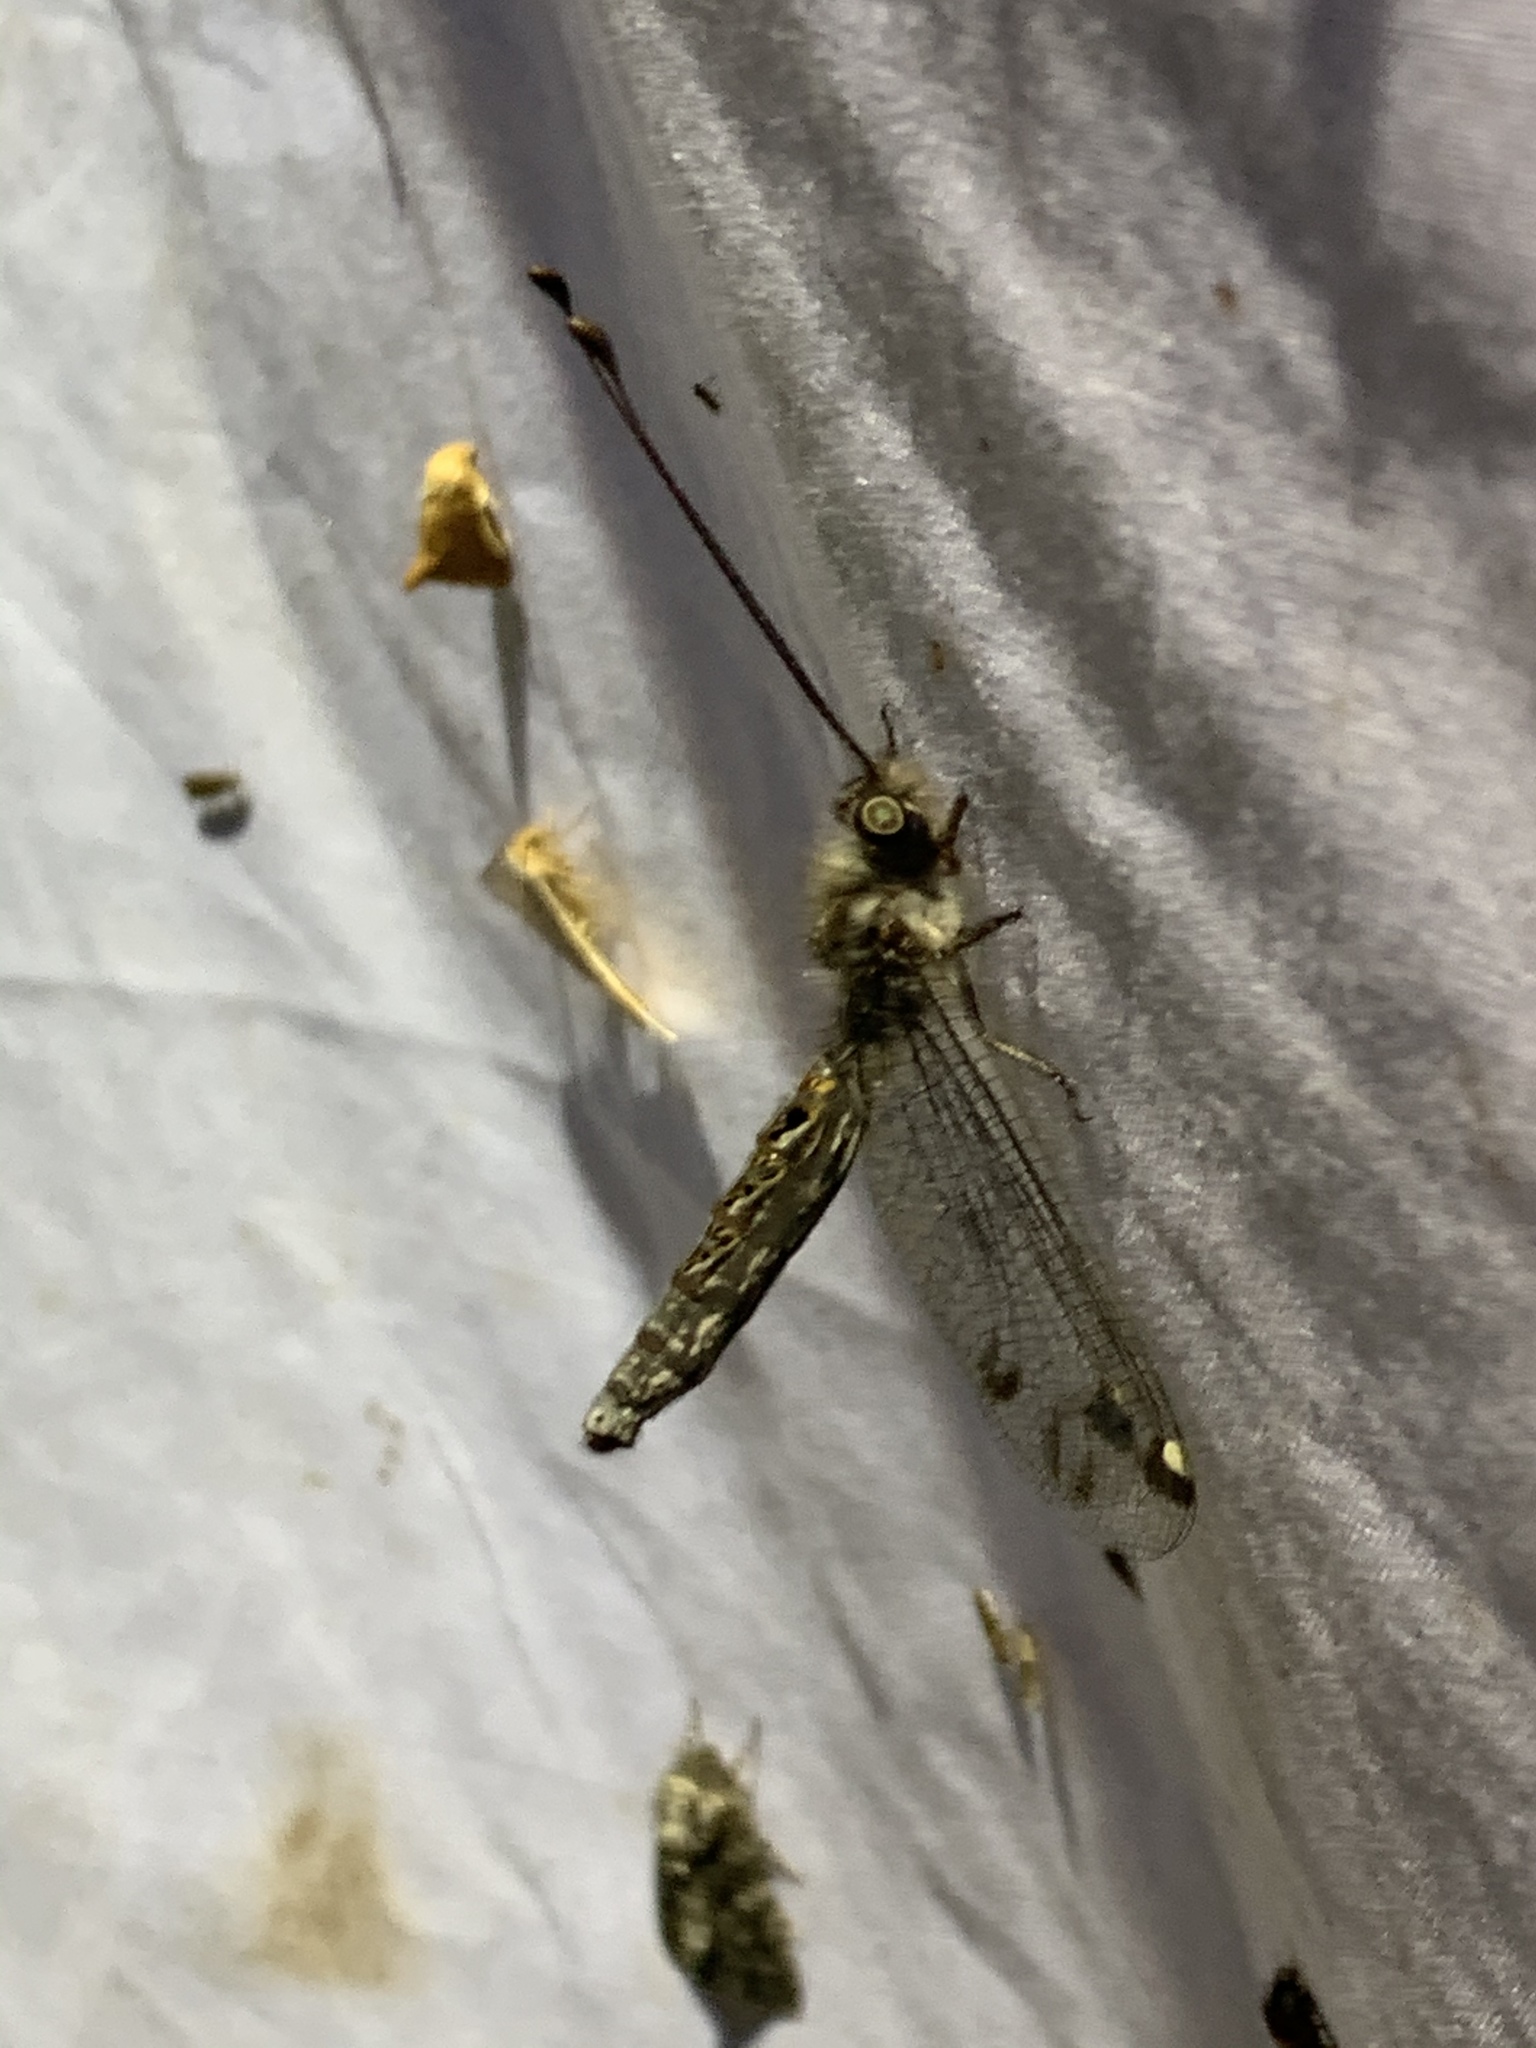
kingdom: Animalia
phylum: Arthropoda
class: Insecta
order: Neuroptera
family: Ascalaphidae
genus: Ululodes
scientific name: Ululodes quadripunctatus
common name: Four-spotted owlfly
